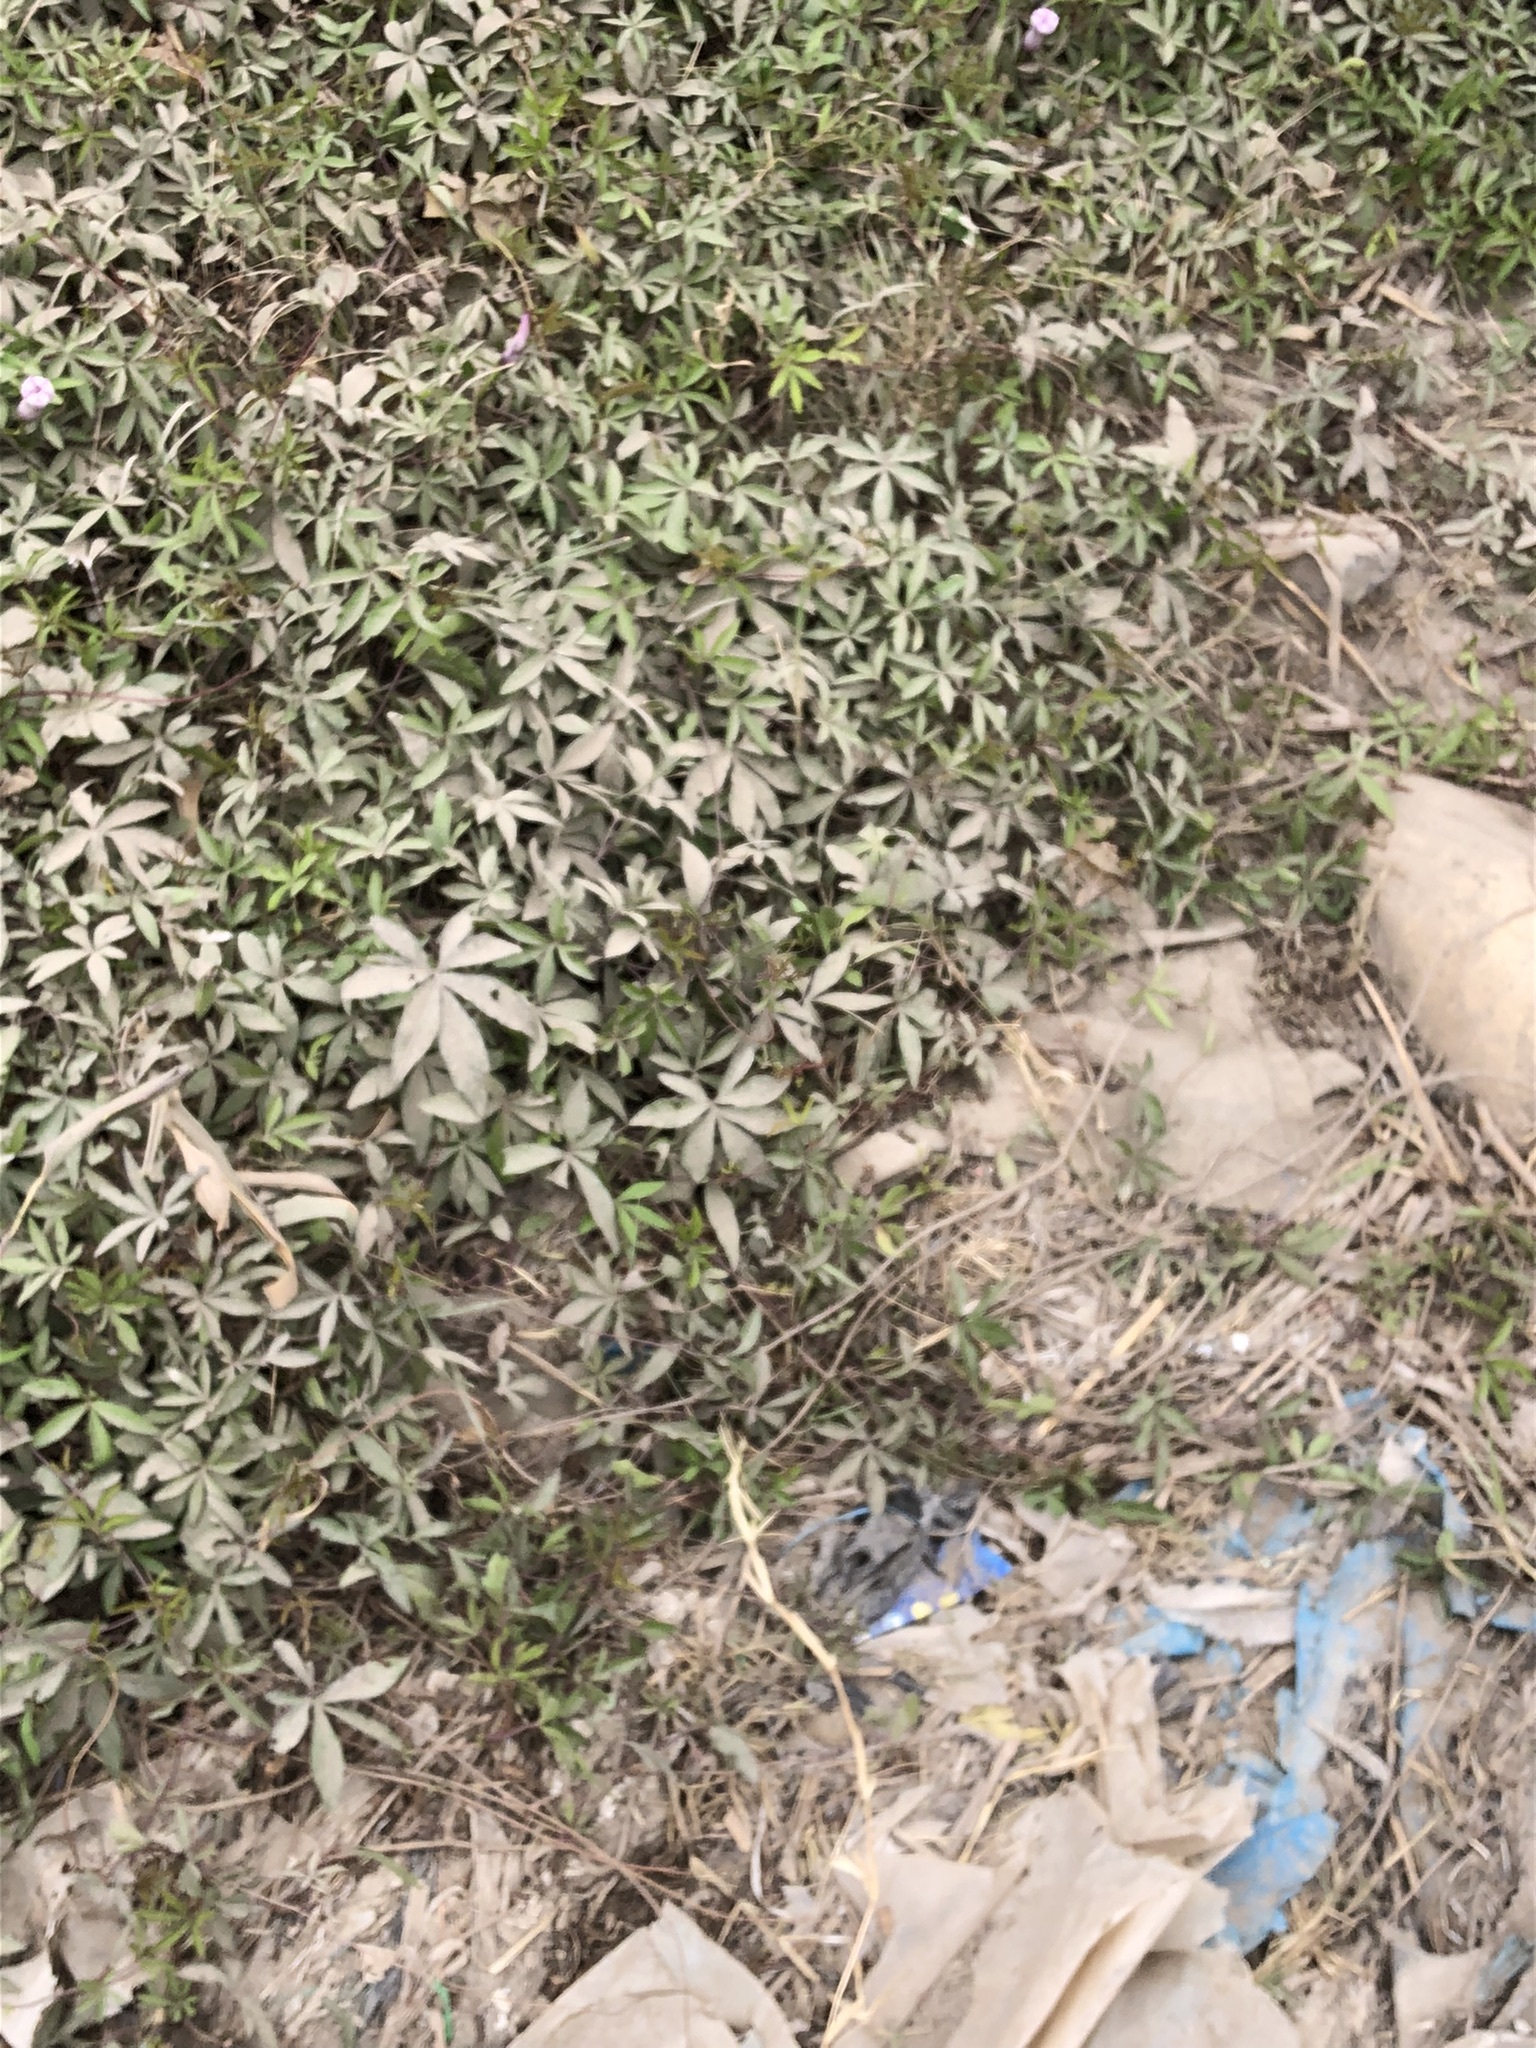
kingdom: Plantae
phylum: Tracheophyta
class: Magnoliopsida
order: Solanales
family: Convolvulaceae
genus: Ipomoea
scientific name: Ipomoea cairica
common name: Mile a minute vine
